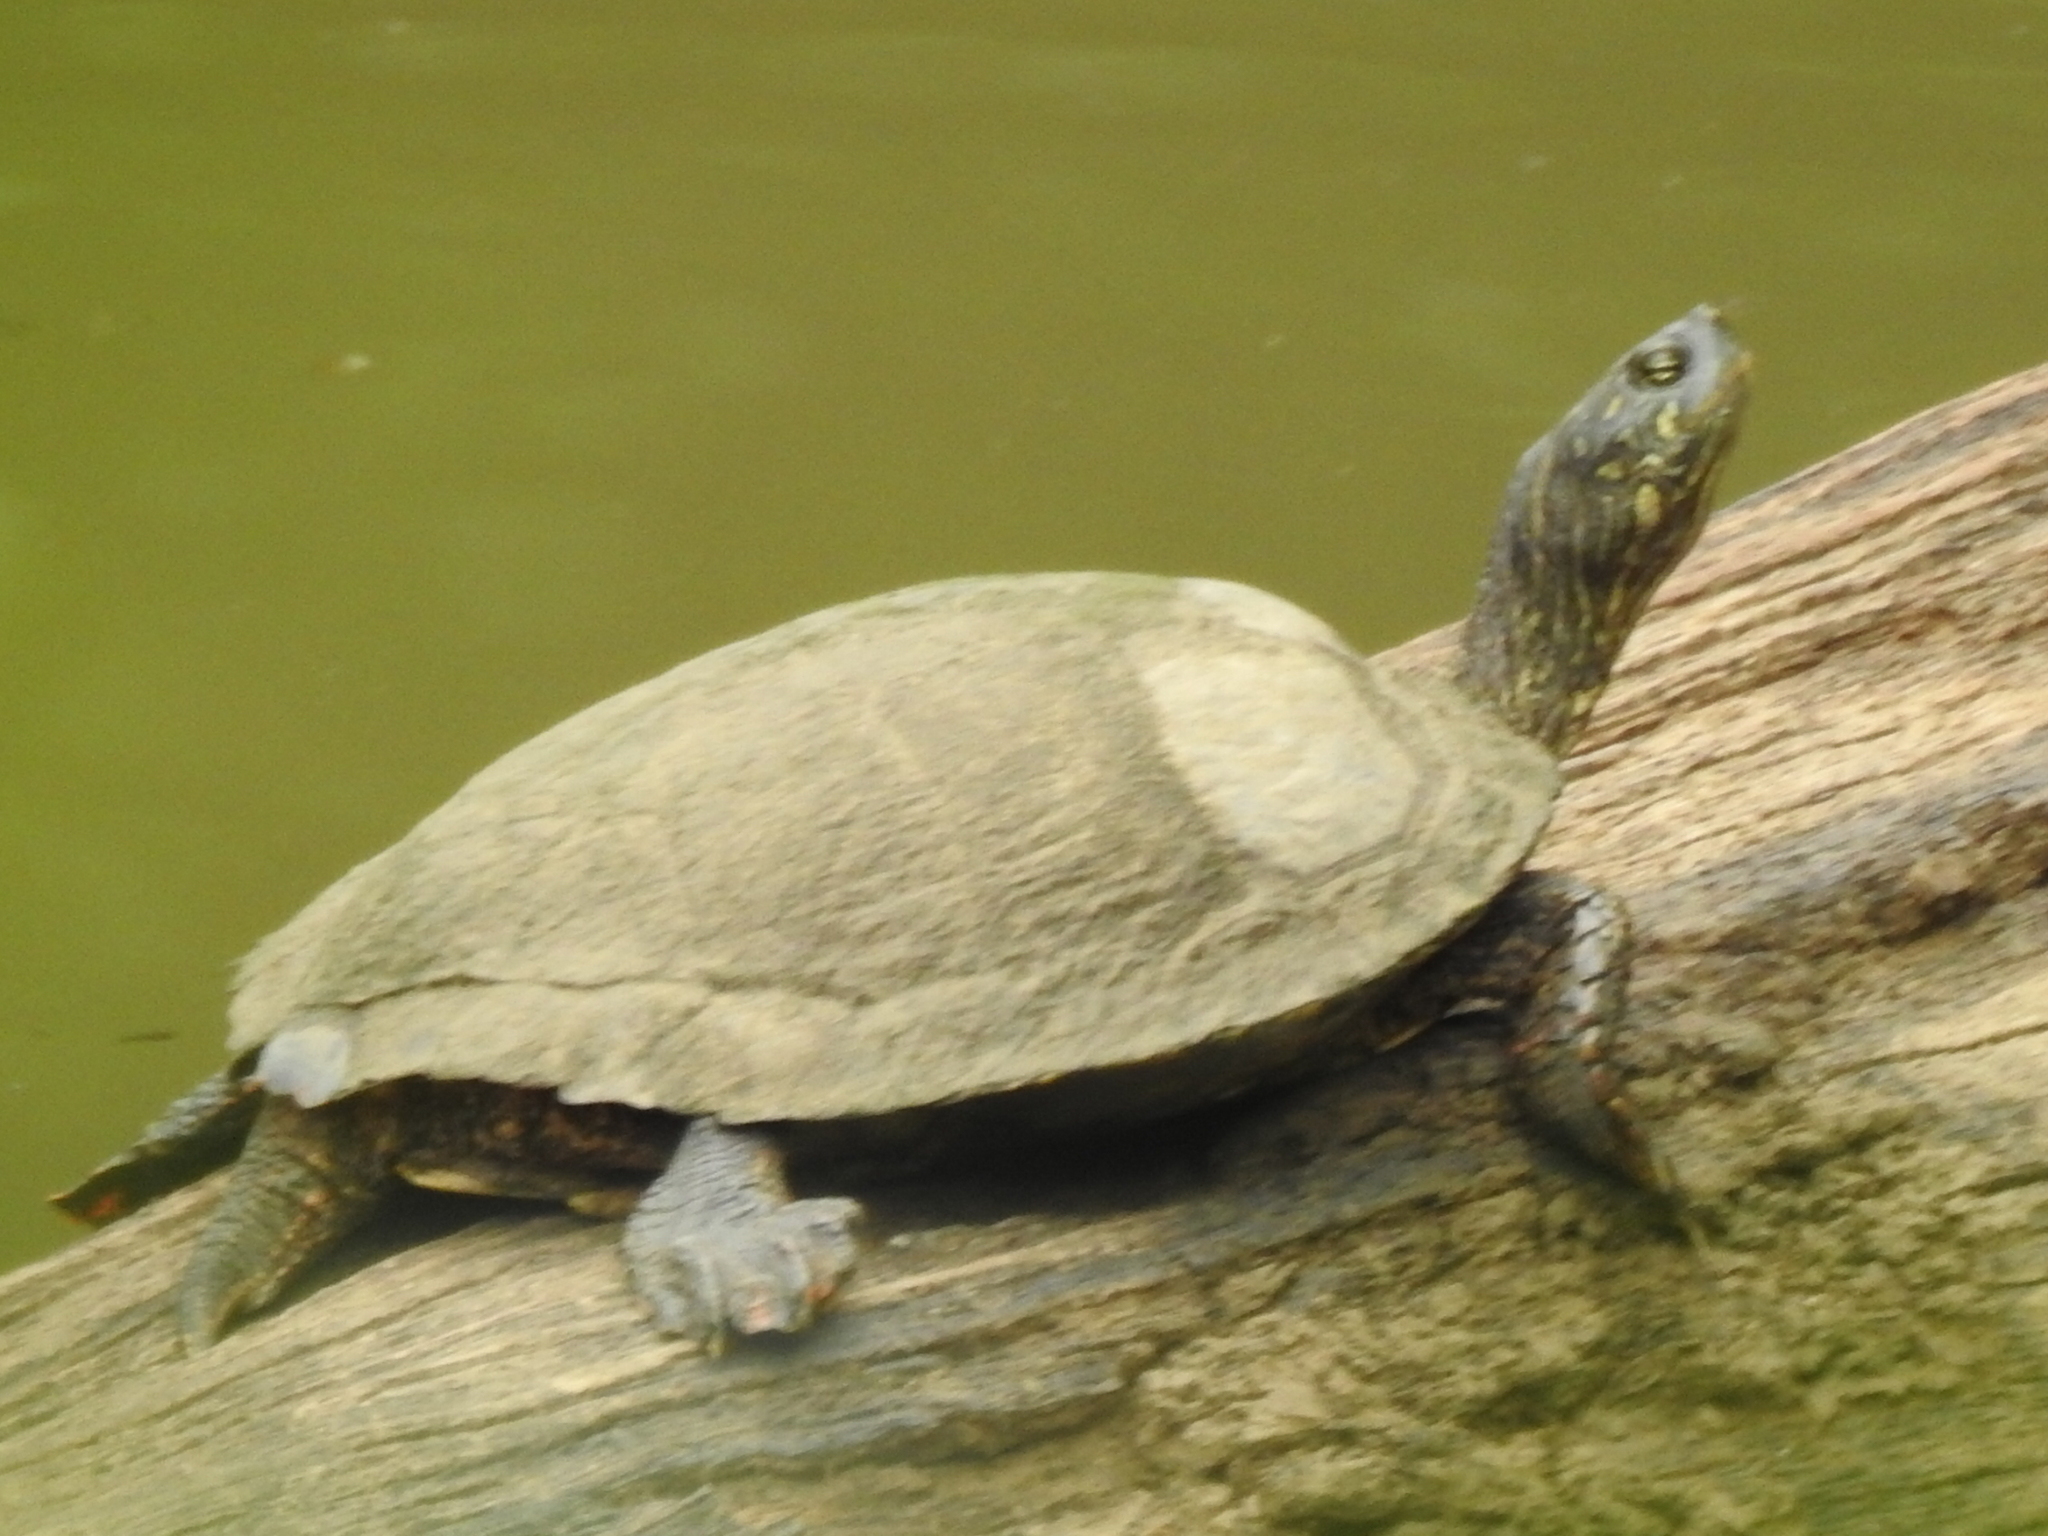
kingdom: Animalia
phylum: Chordata
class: Testudines
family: Emydidae
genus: Pseudemys
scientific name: Pseudemys concinna
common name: Eastern river cooter
